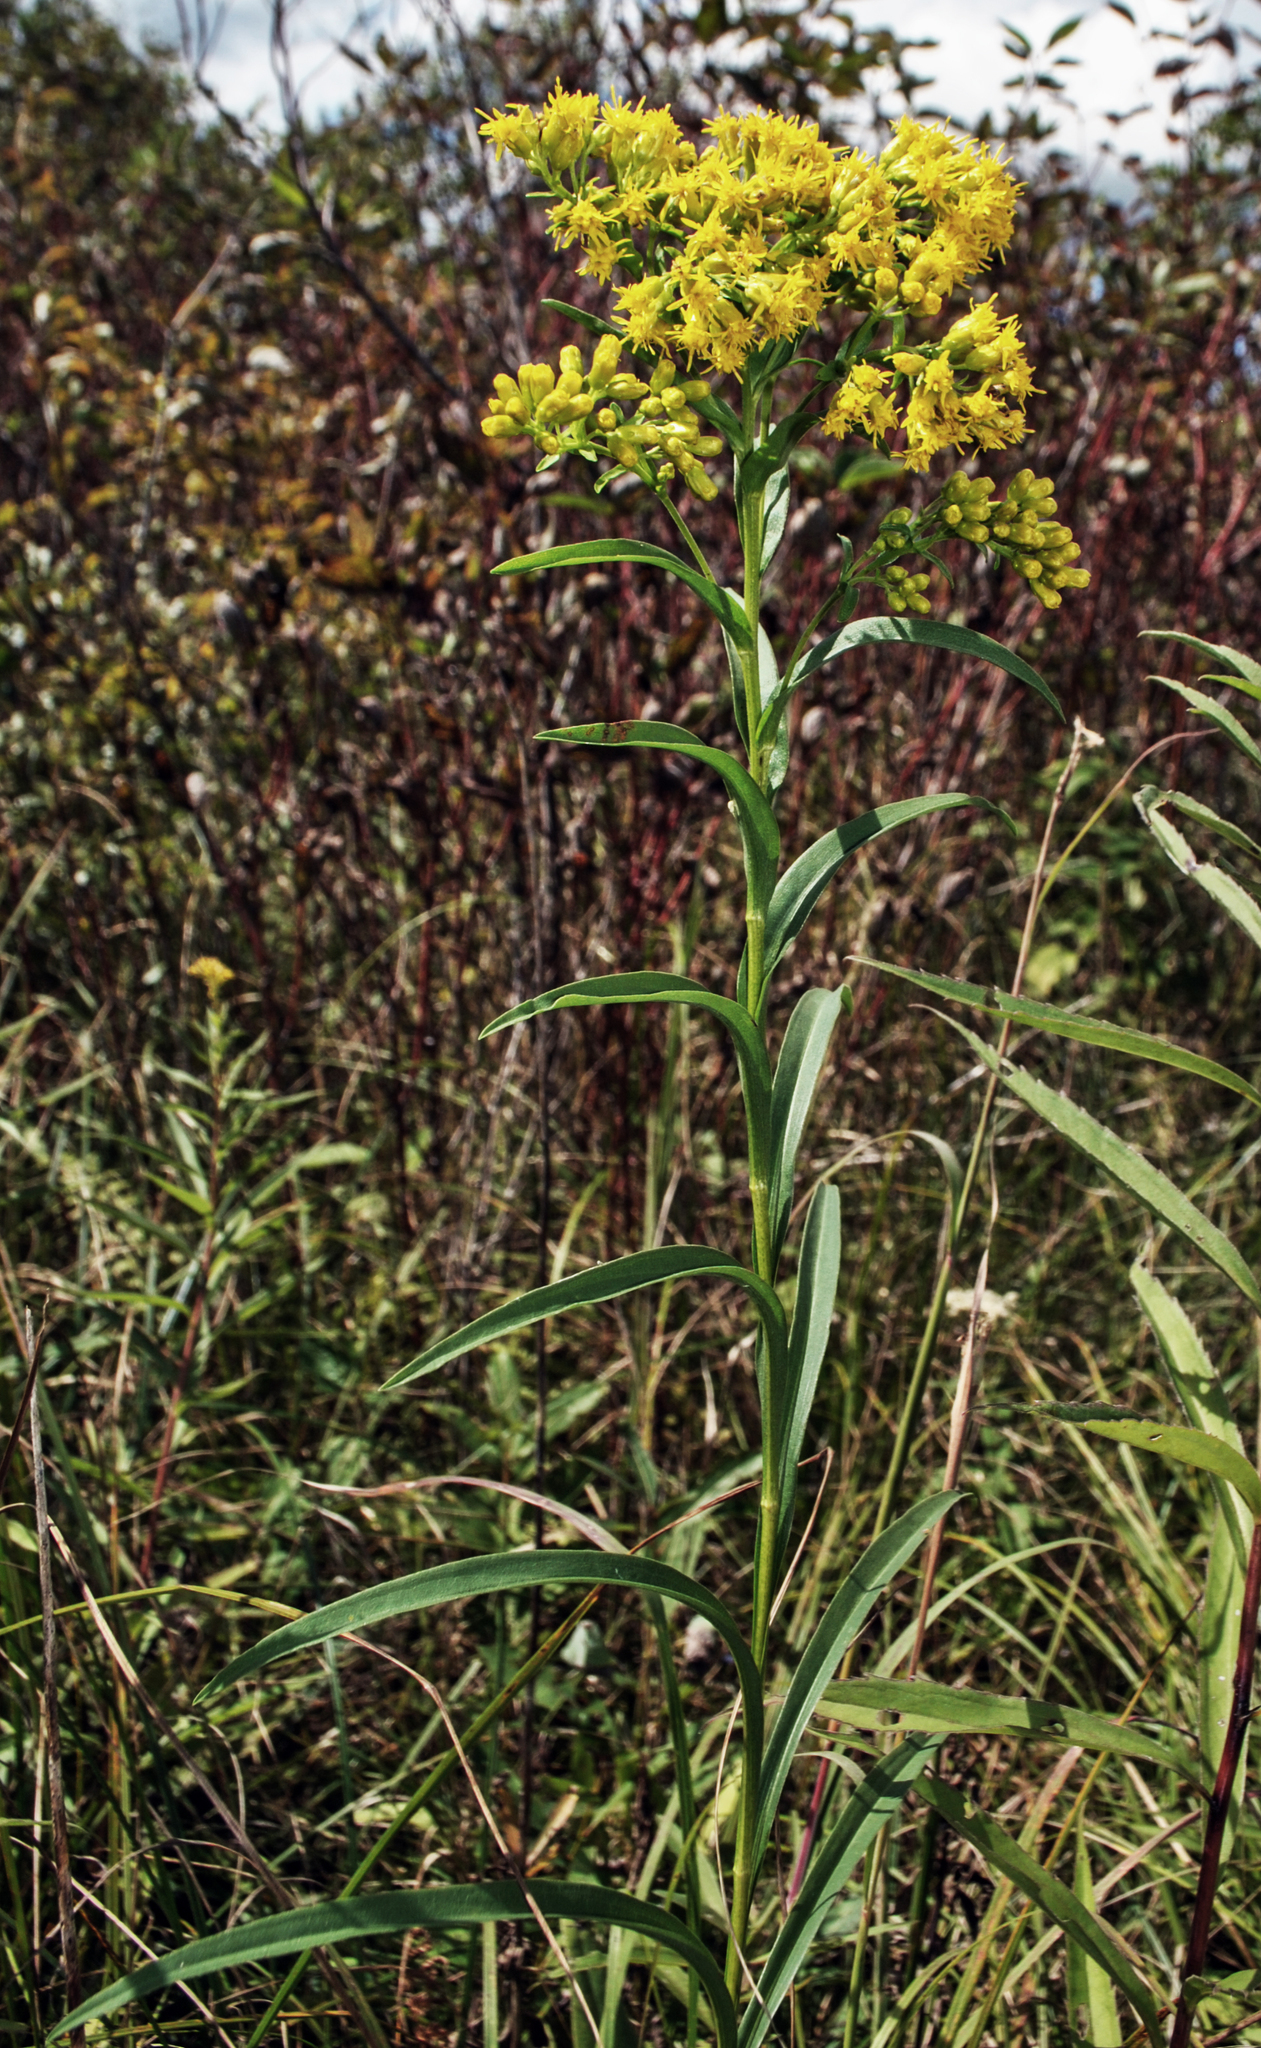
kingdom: Plantae
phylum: Tracheophyta
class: Magnoliopsida
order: Asterales
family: Asteraceae
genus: Solidago
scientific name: Solidago riddellii
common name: Riddell's goldenrod
